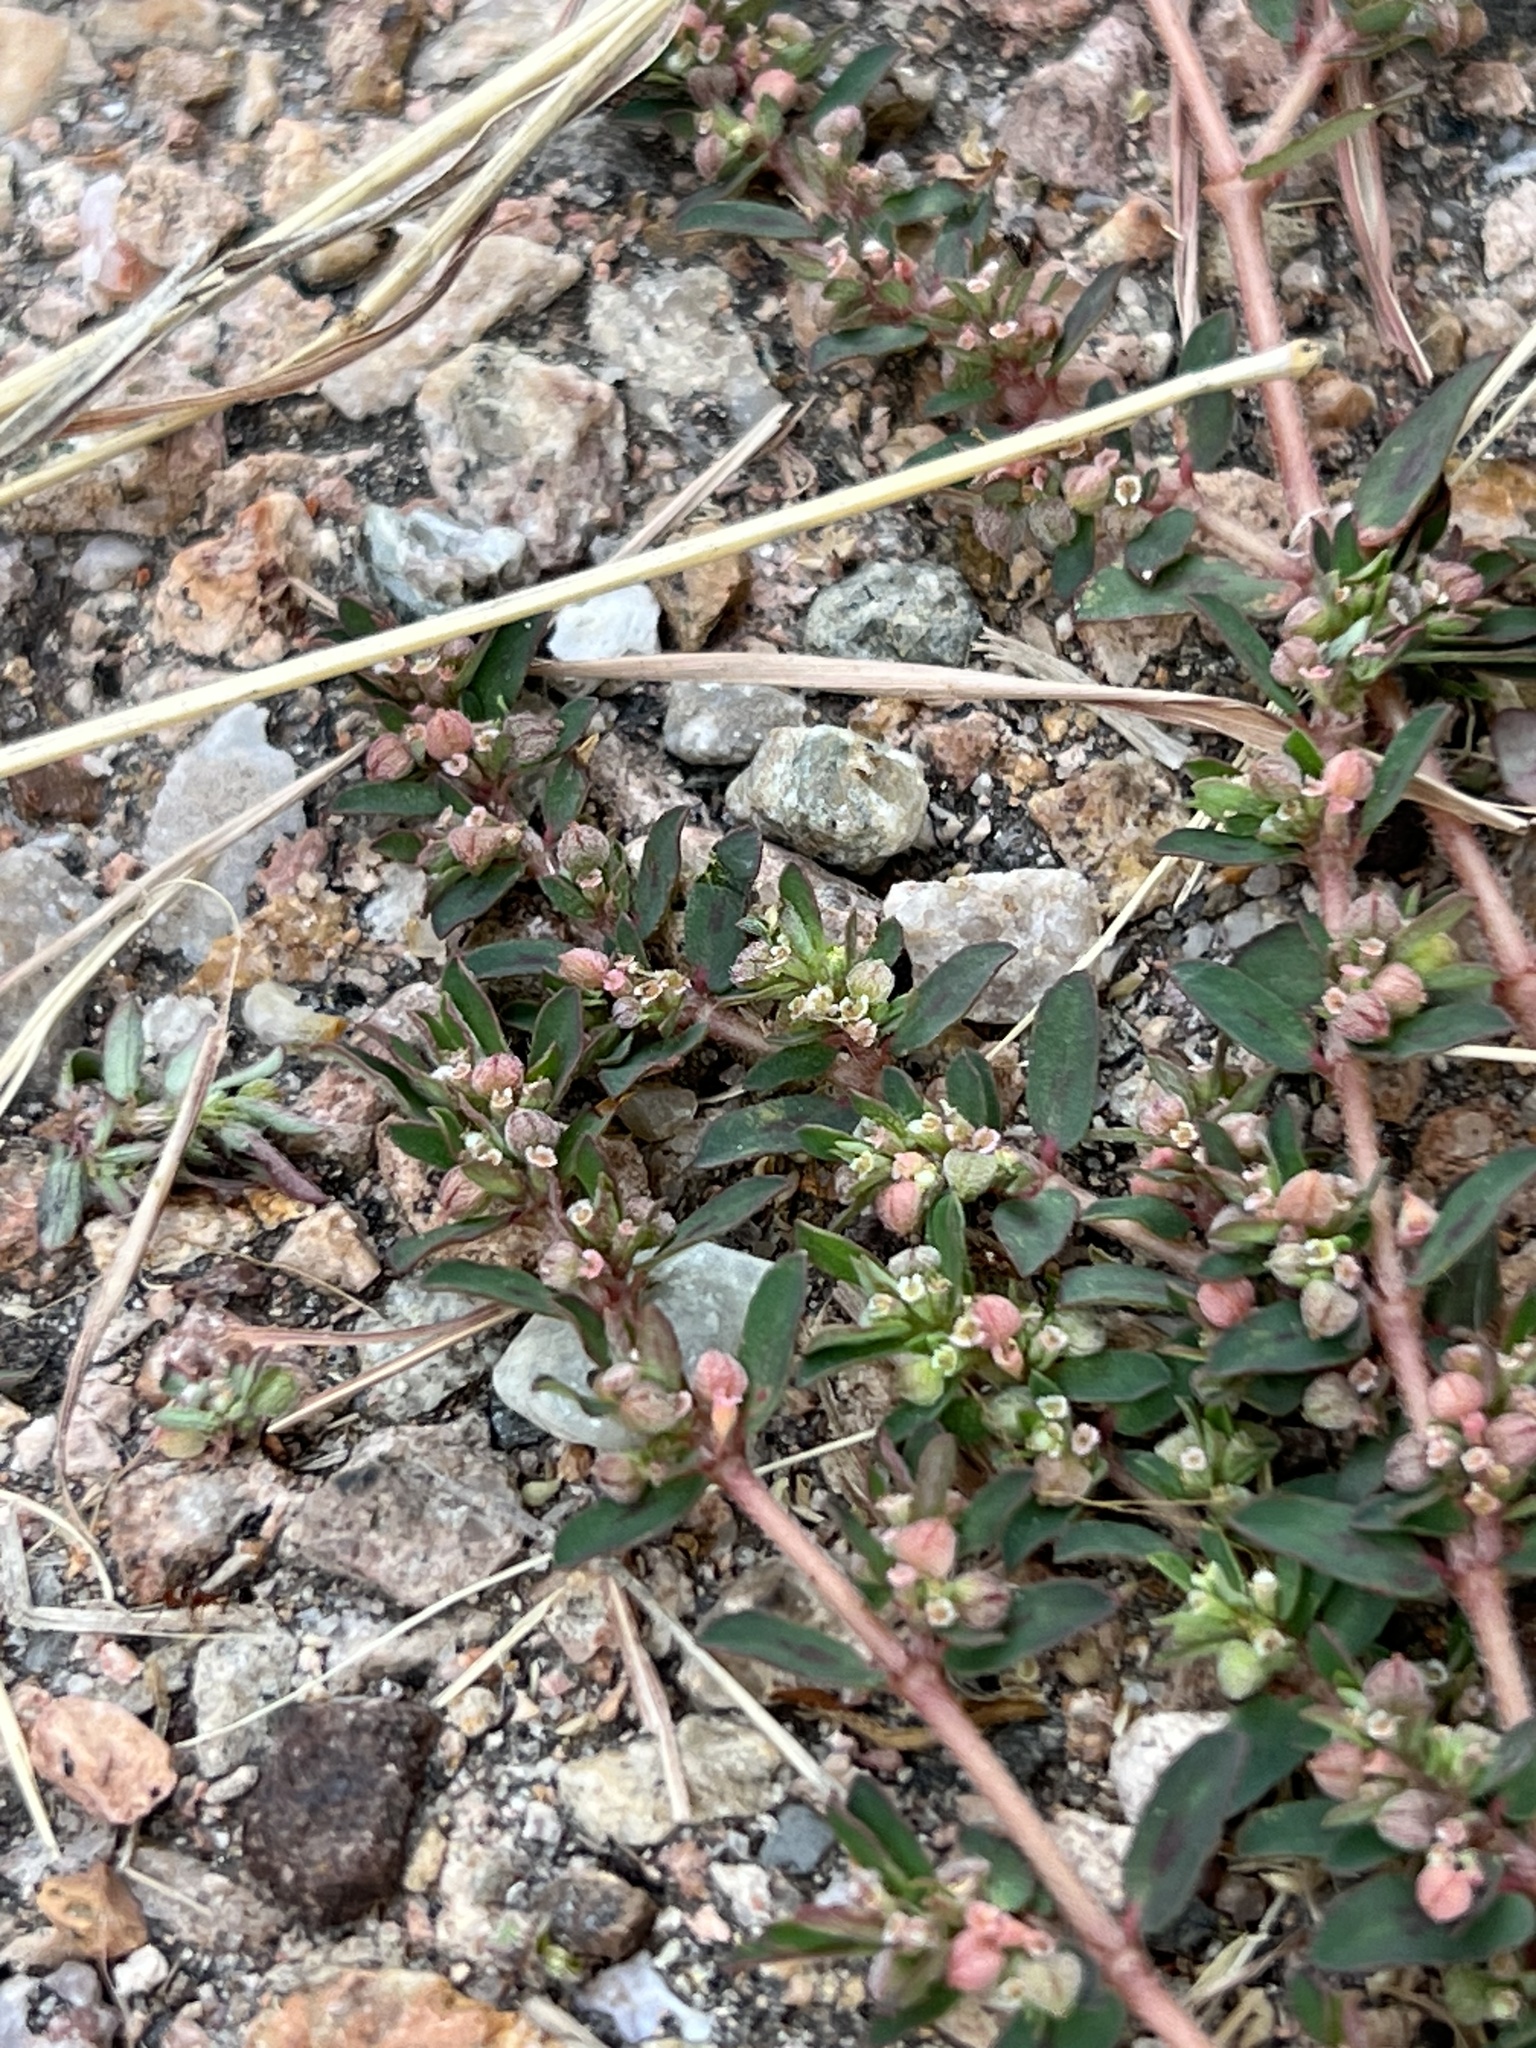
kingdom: Plantae
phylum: Tracheophyta
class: Magnoliopsida
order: Malpighiales
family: Euphorbiaceae
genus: Euphorbia
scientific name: Euphorbia maculata
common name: Spotted spurge
